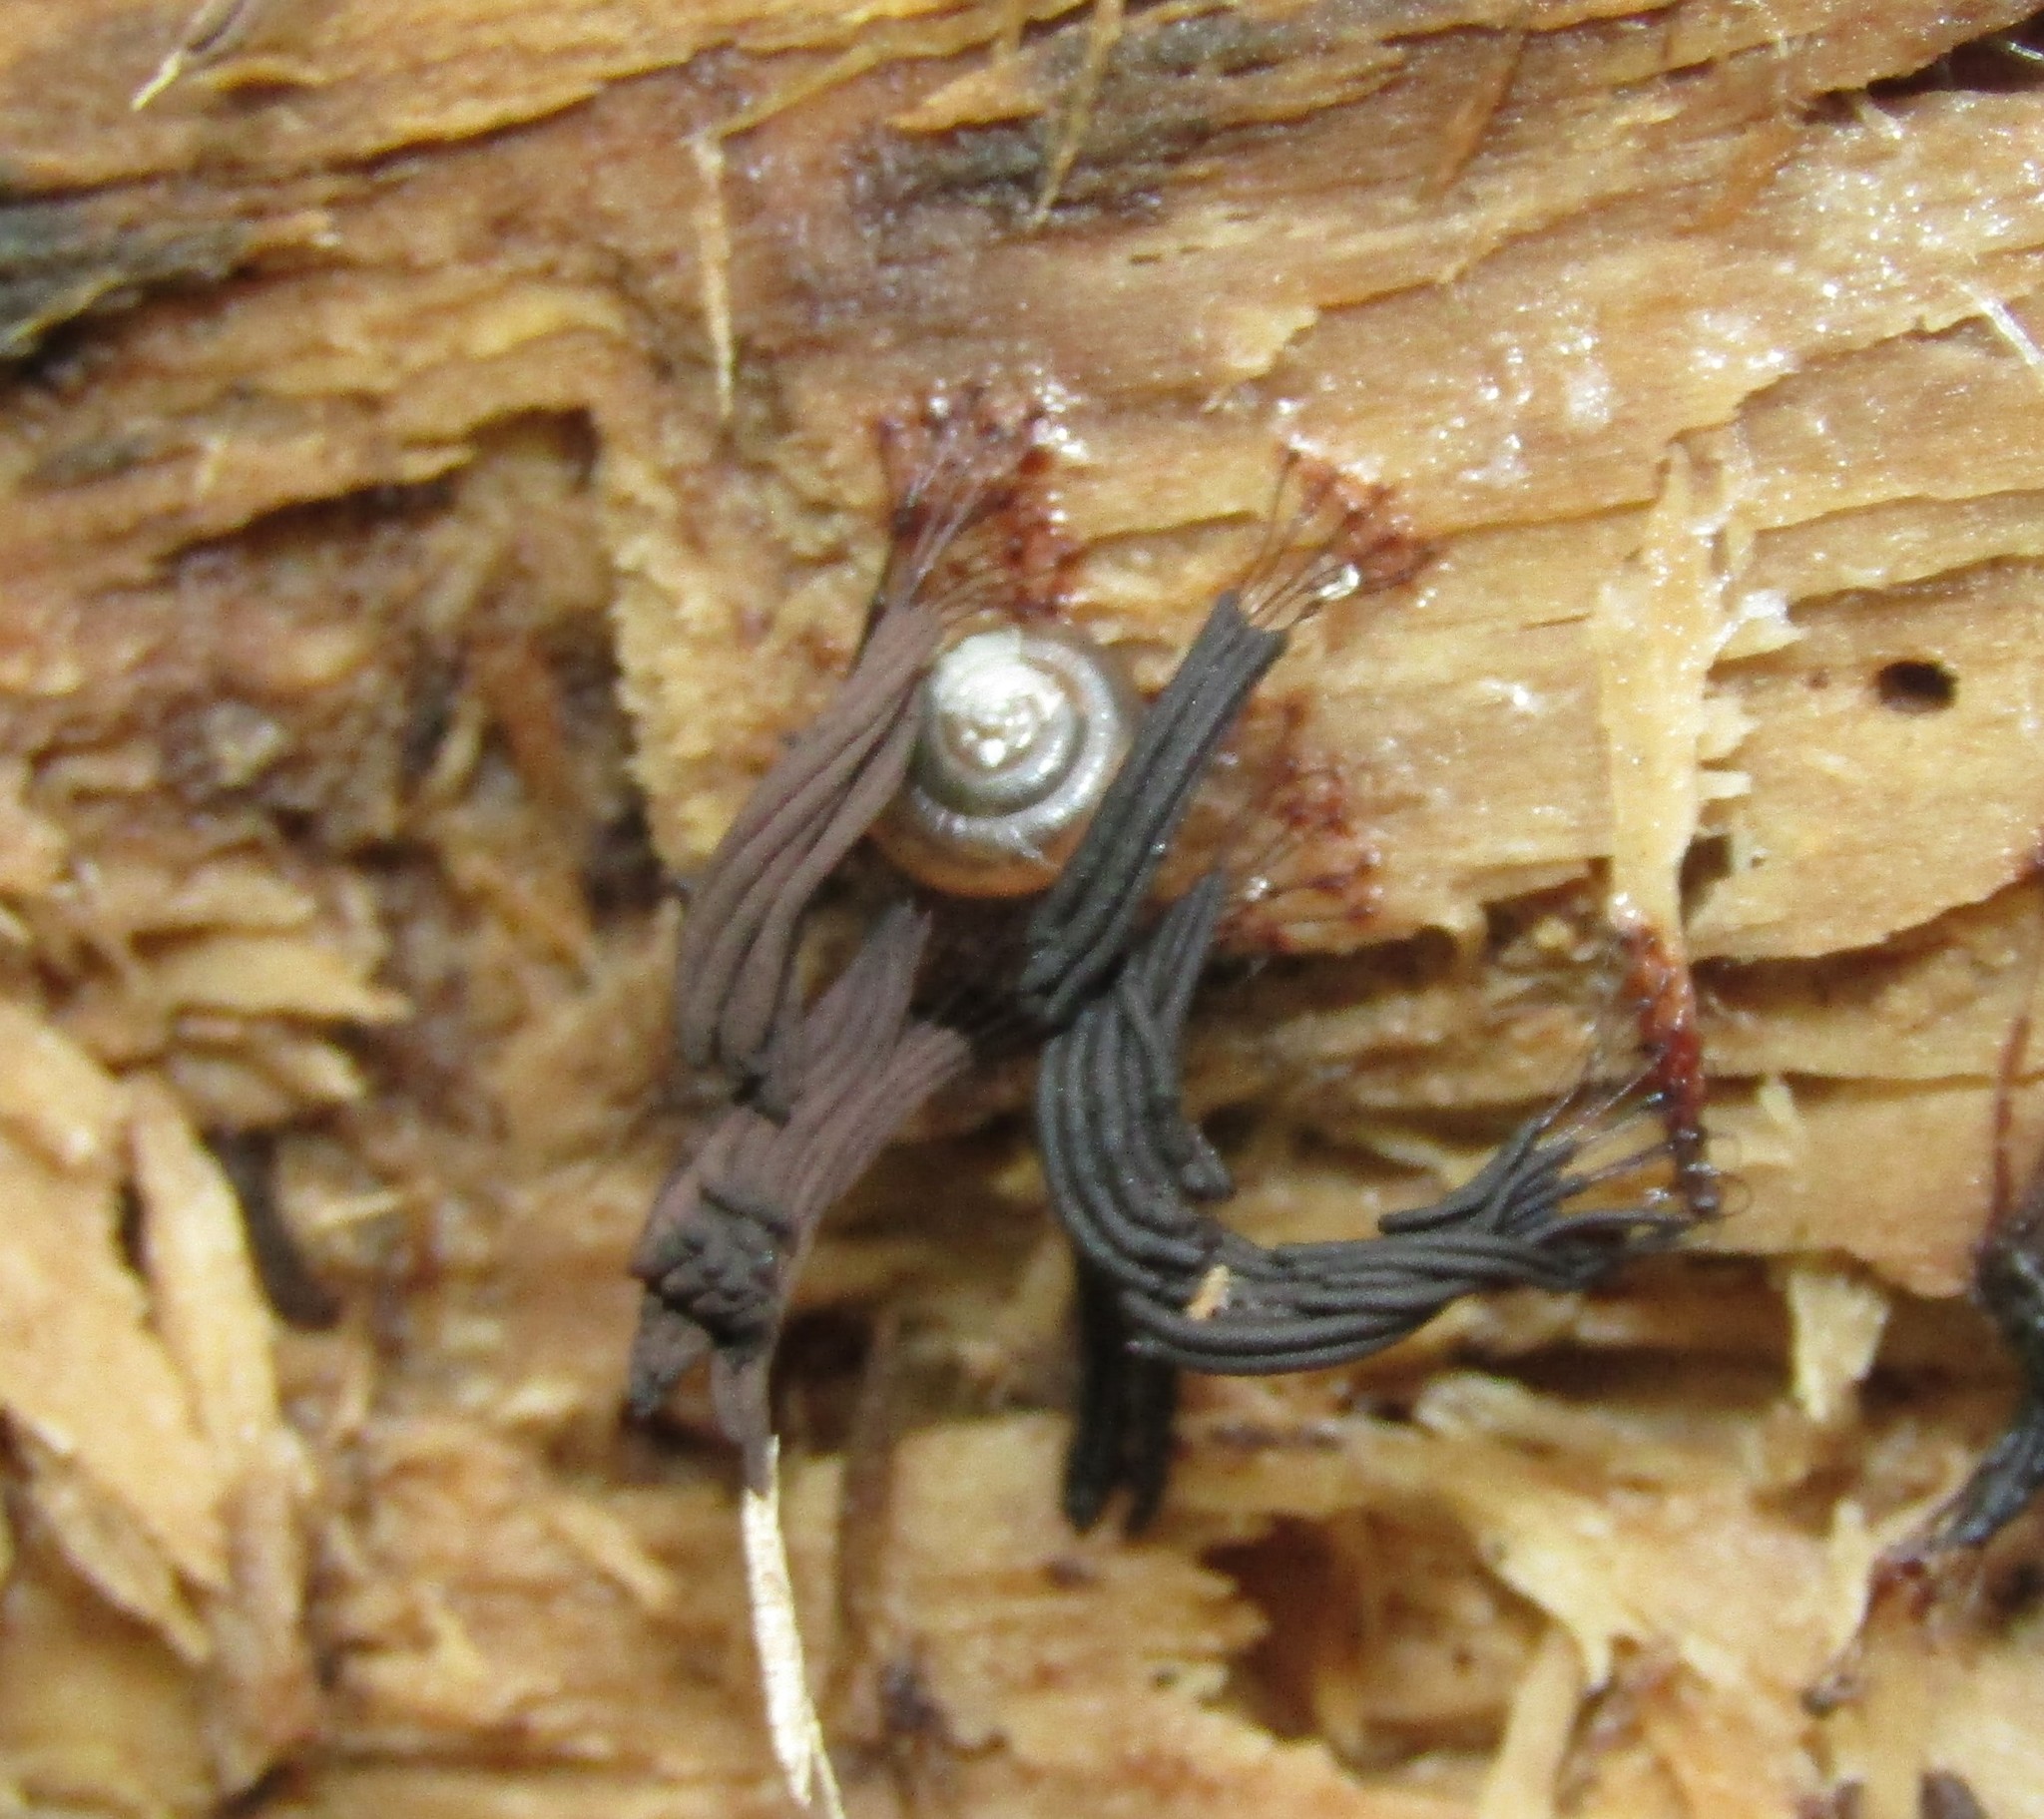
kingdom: Protozoa
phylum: Mycetozoa
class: Myxomycetes
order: Stemonitidales
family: Stemonitidaceae
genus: Stemonitis
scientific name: Stemonitis splendens
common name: Chocolate tube slime
